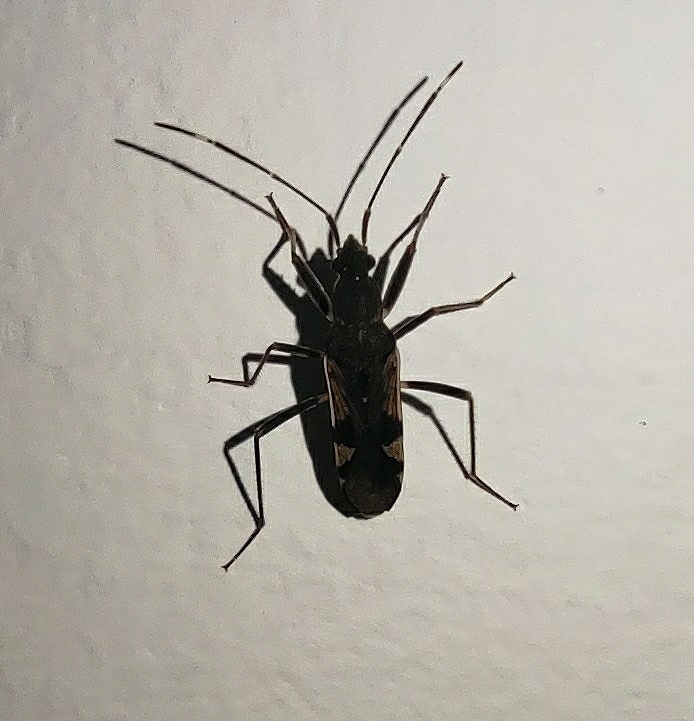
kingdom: Animalia
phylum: Arthropoda
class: Insecta
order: Hemiptera
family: Rhyparochromidae
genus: Metochus
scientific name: Metochus nudipes
